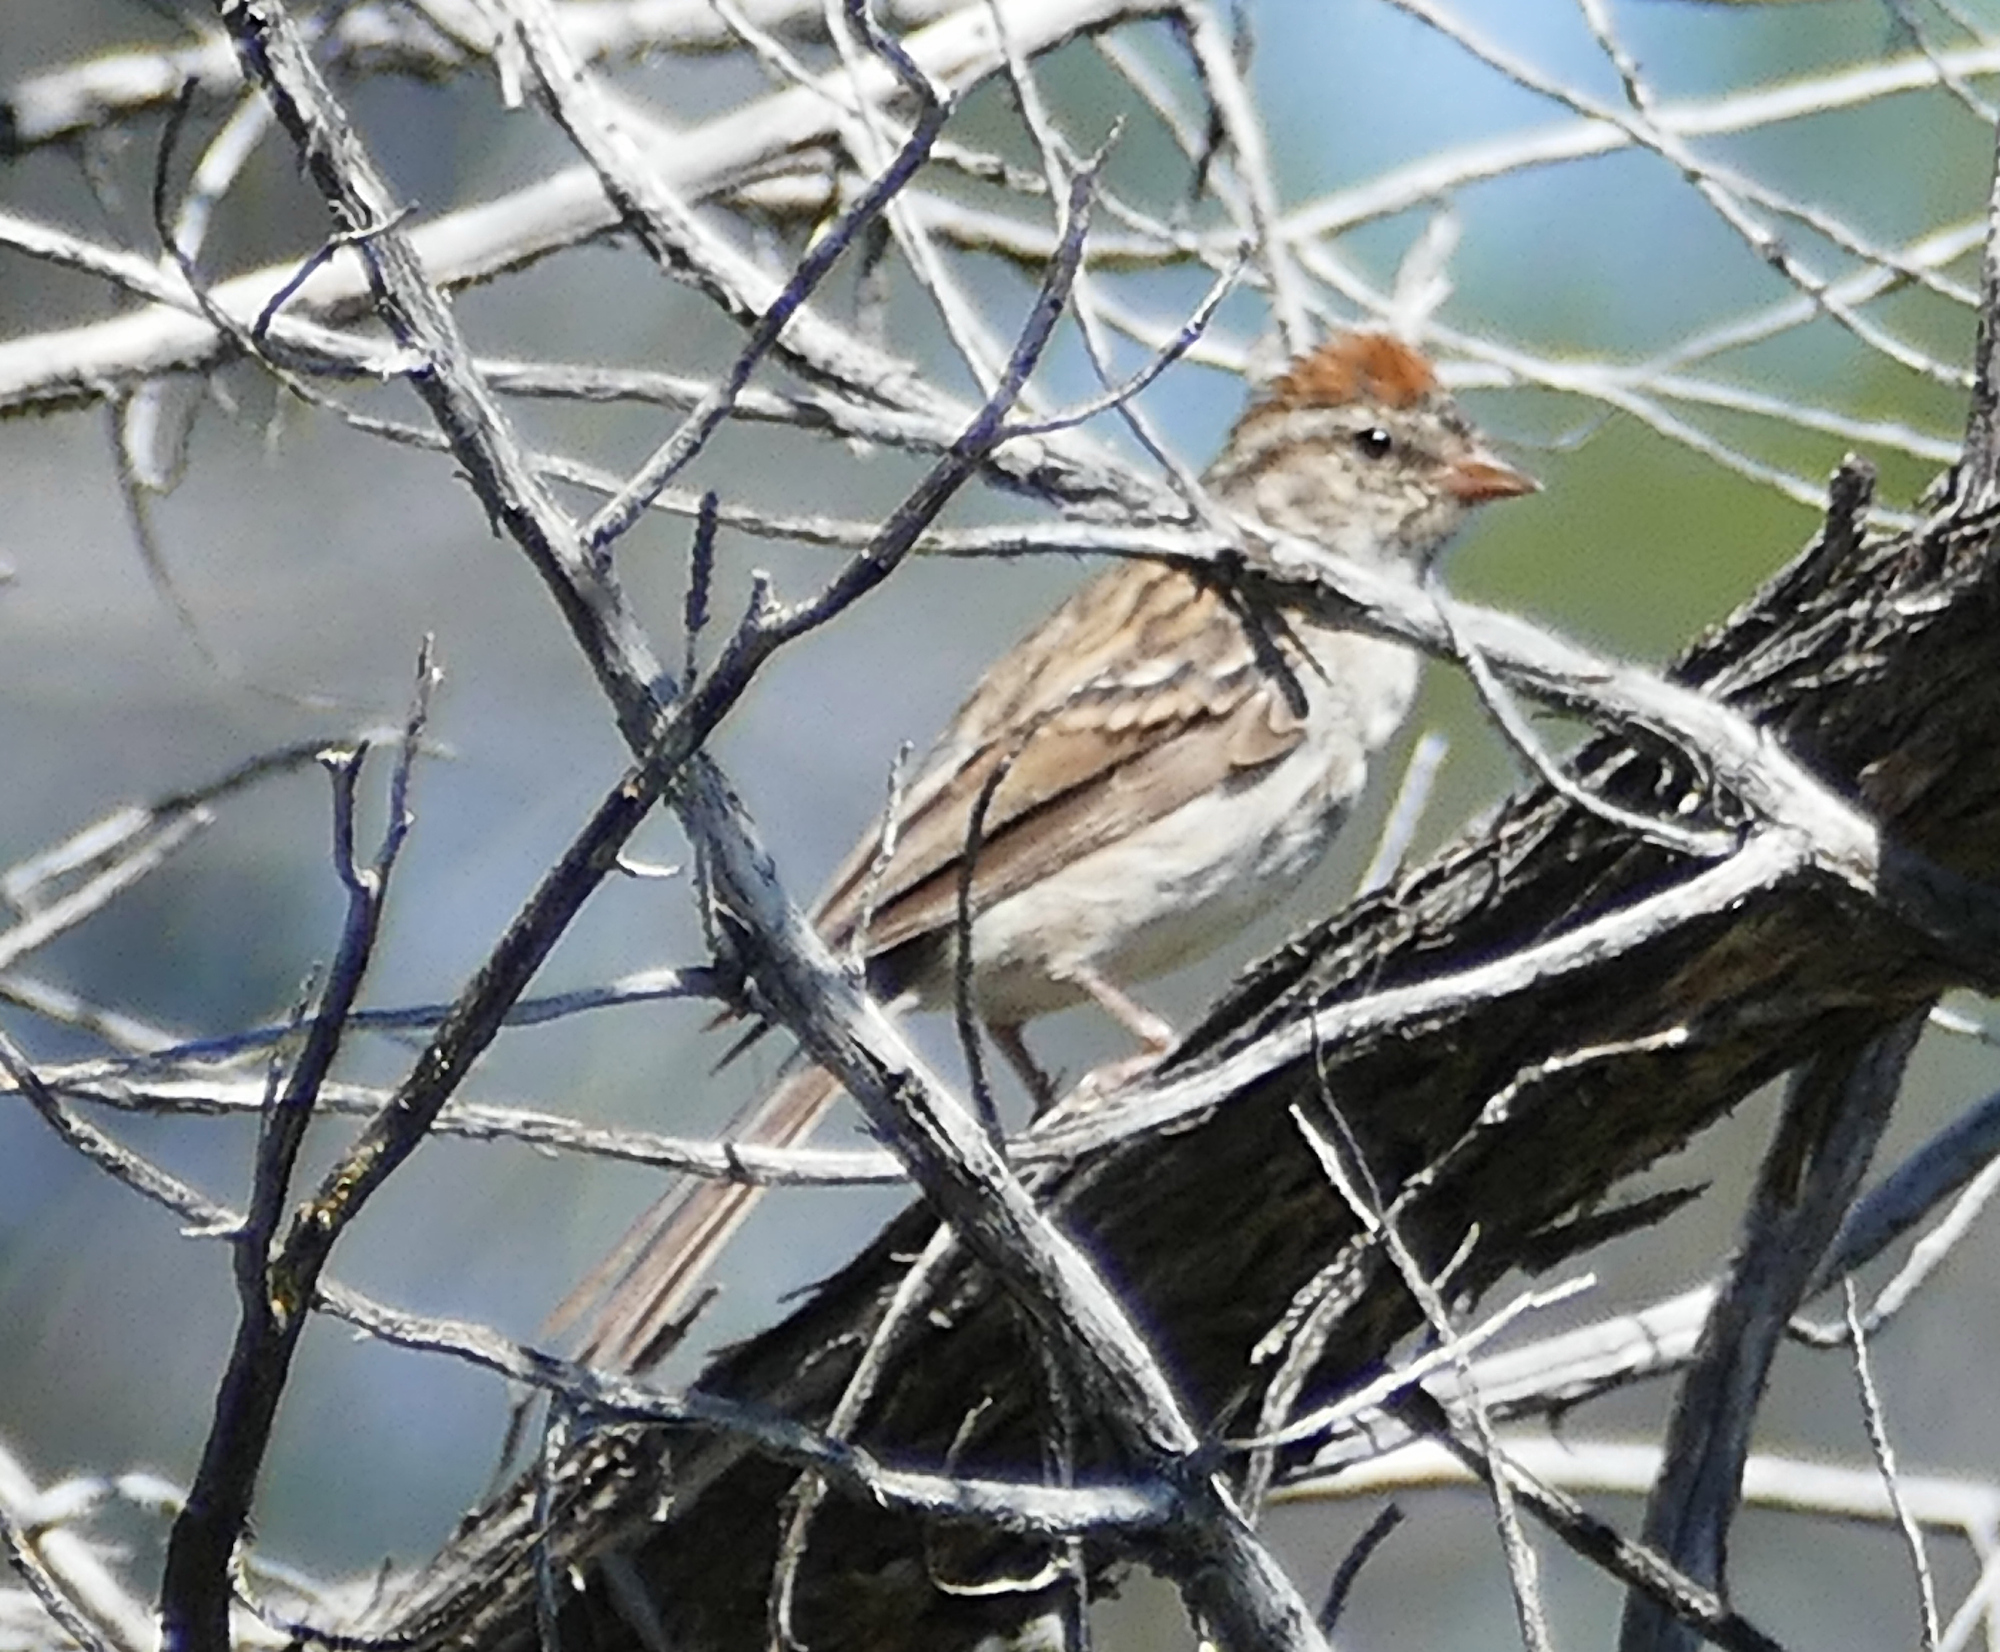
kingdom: Animalia
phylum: Chordata
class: Aves
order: Passeriformes
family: Passerellidae
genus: Spizella
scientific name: Spizella passerina
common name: Chipping sparrow
